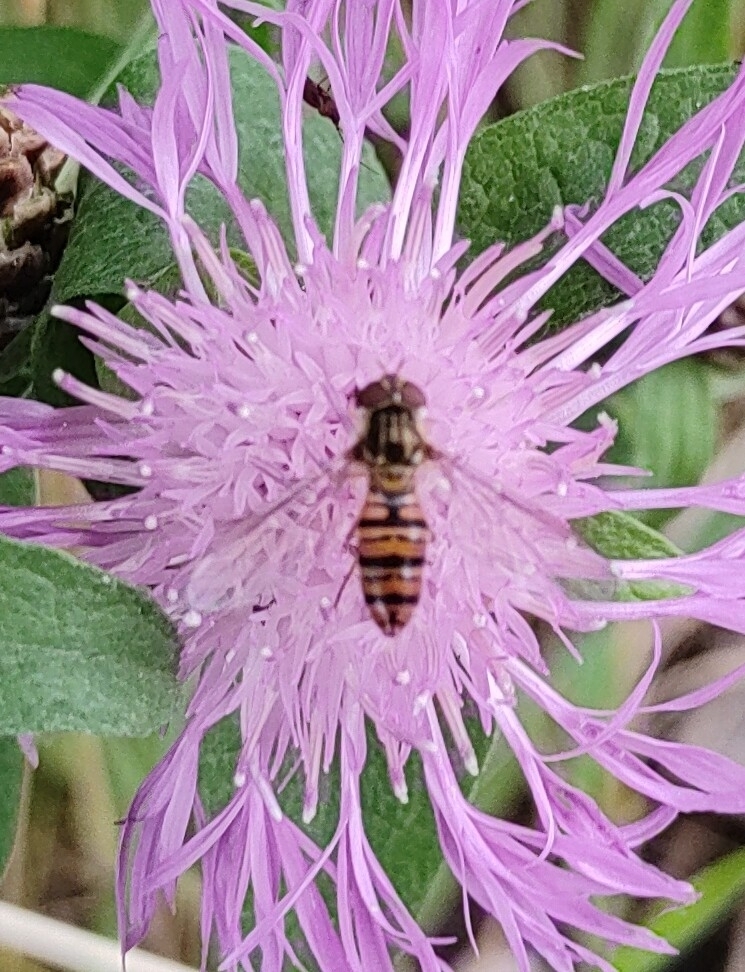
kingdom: Animalia
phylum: Arthropoda
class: Insecta
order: Diptera
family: Syrphidae
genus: Episyrphus
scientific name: Episyrphus balteatus
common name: Marmalade hoverfly
